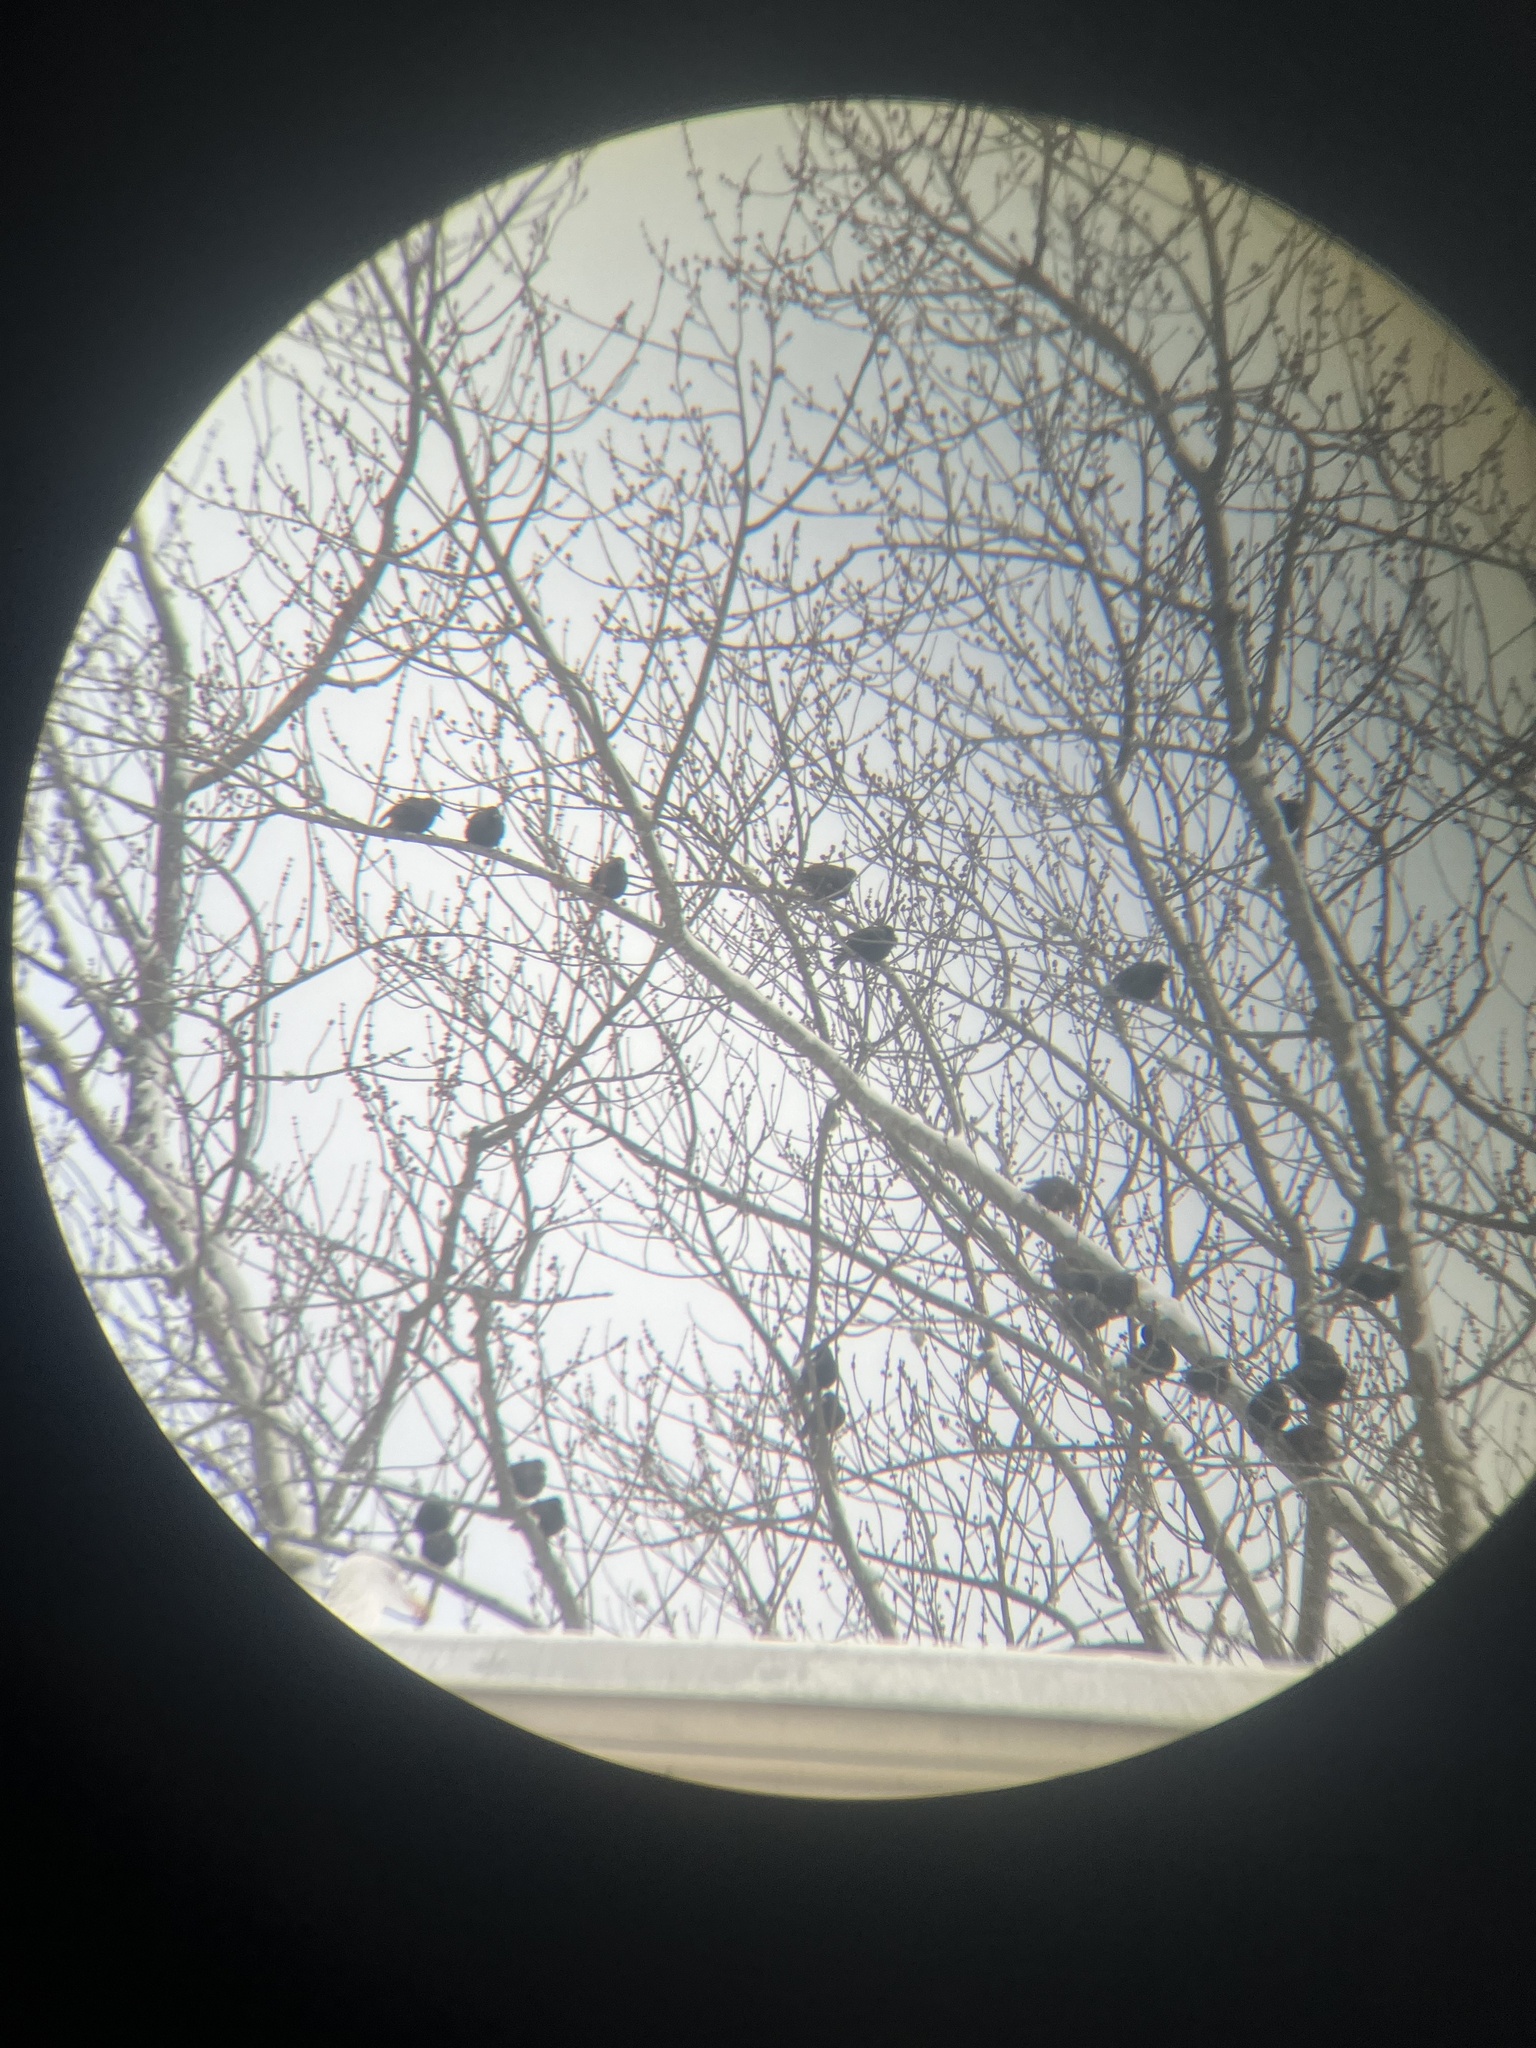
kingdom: Animalia
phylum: Chordata
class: Aves
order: Passeriformes
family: Sturnidae
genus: Sturnus
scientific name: Sturnus vulgaris
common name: Common starling
